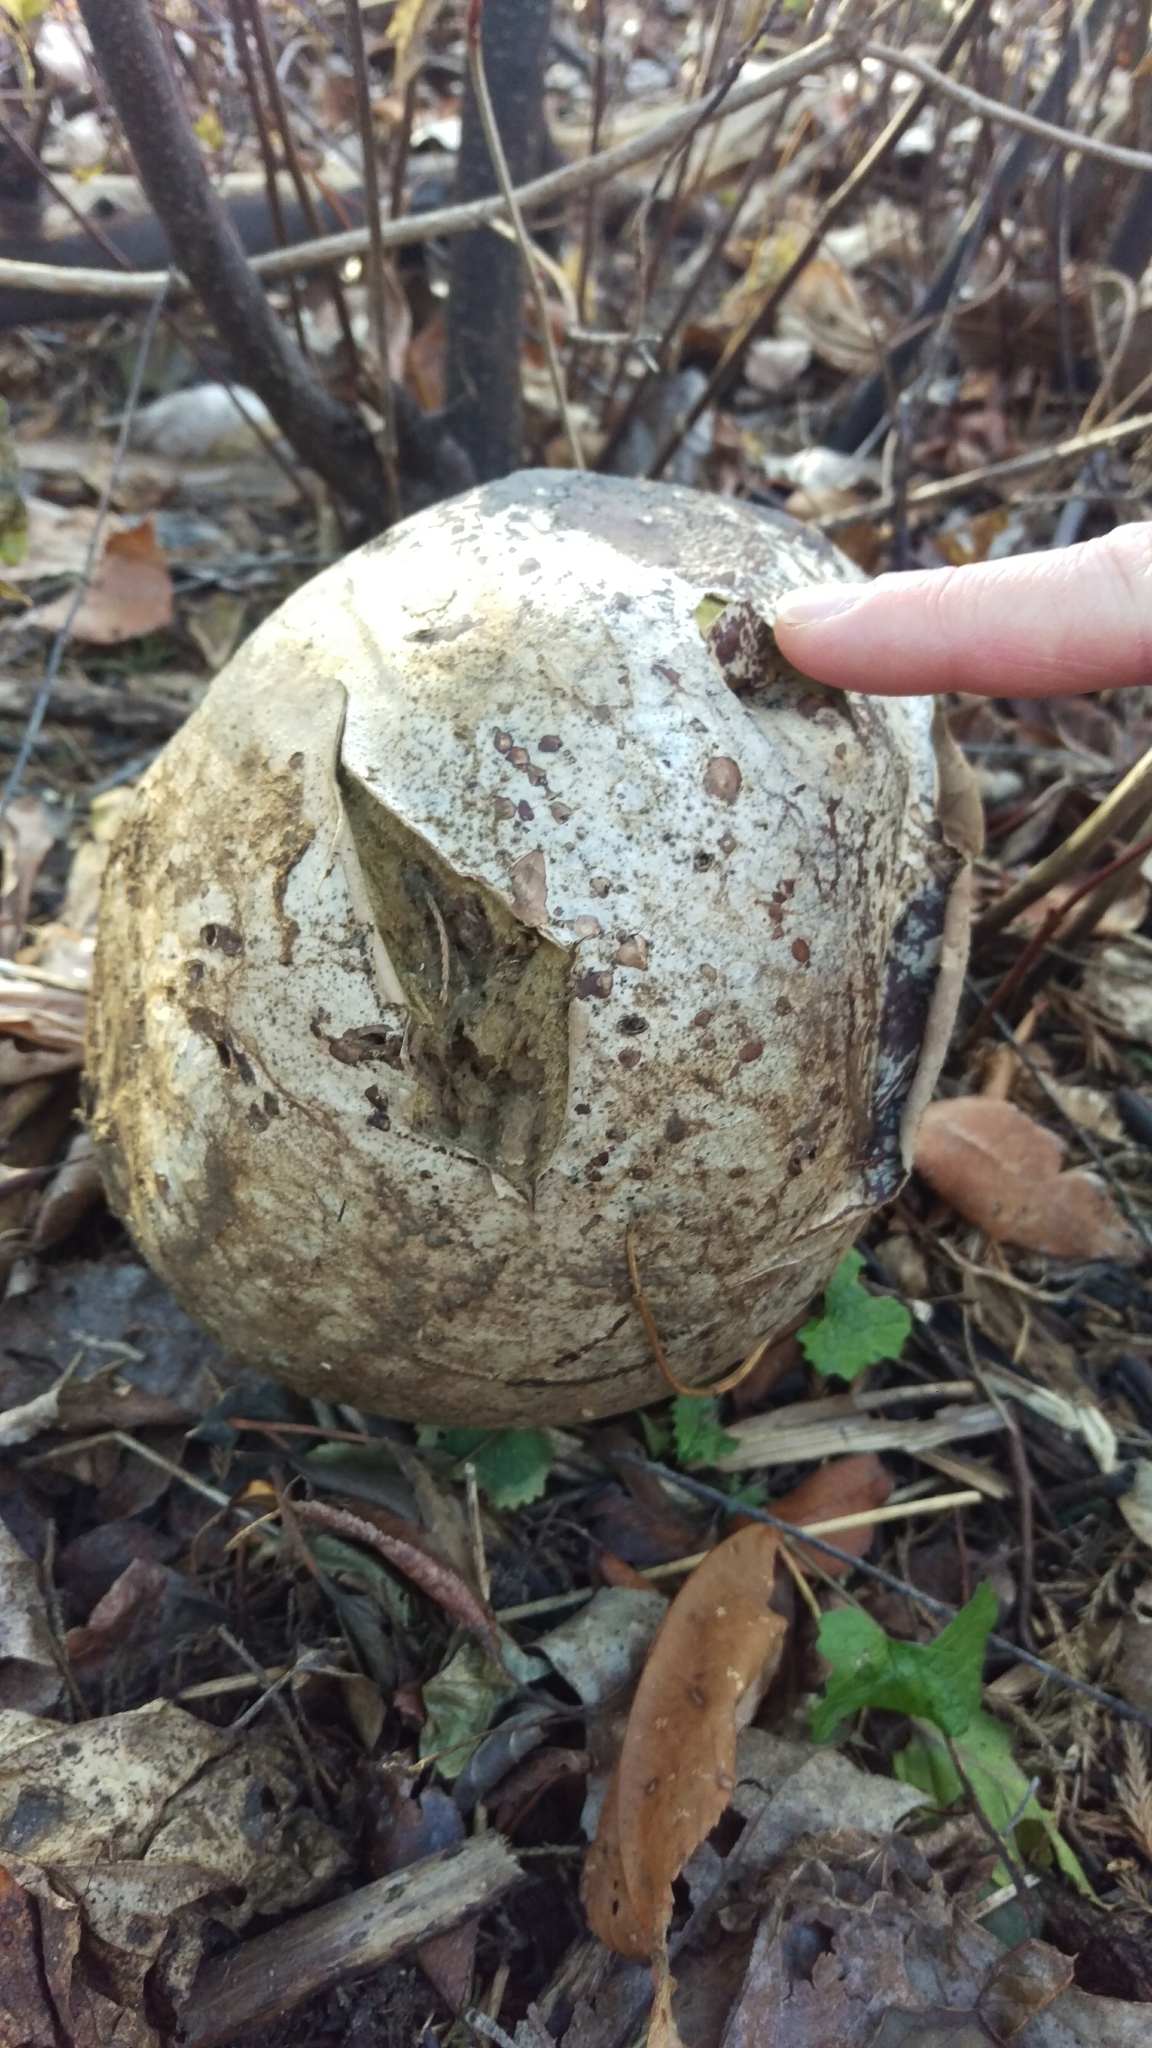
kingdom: Fungi
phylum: Basidiomycota
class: Agaricomycetes
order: Agaricales
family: Lycoperdaceae
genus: Calvatia
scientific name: Calvatia gigantea
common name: Giant puffball
